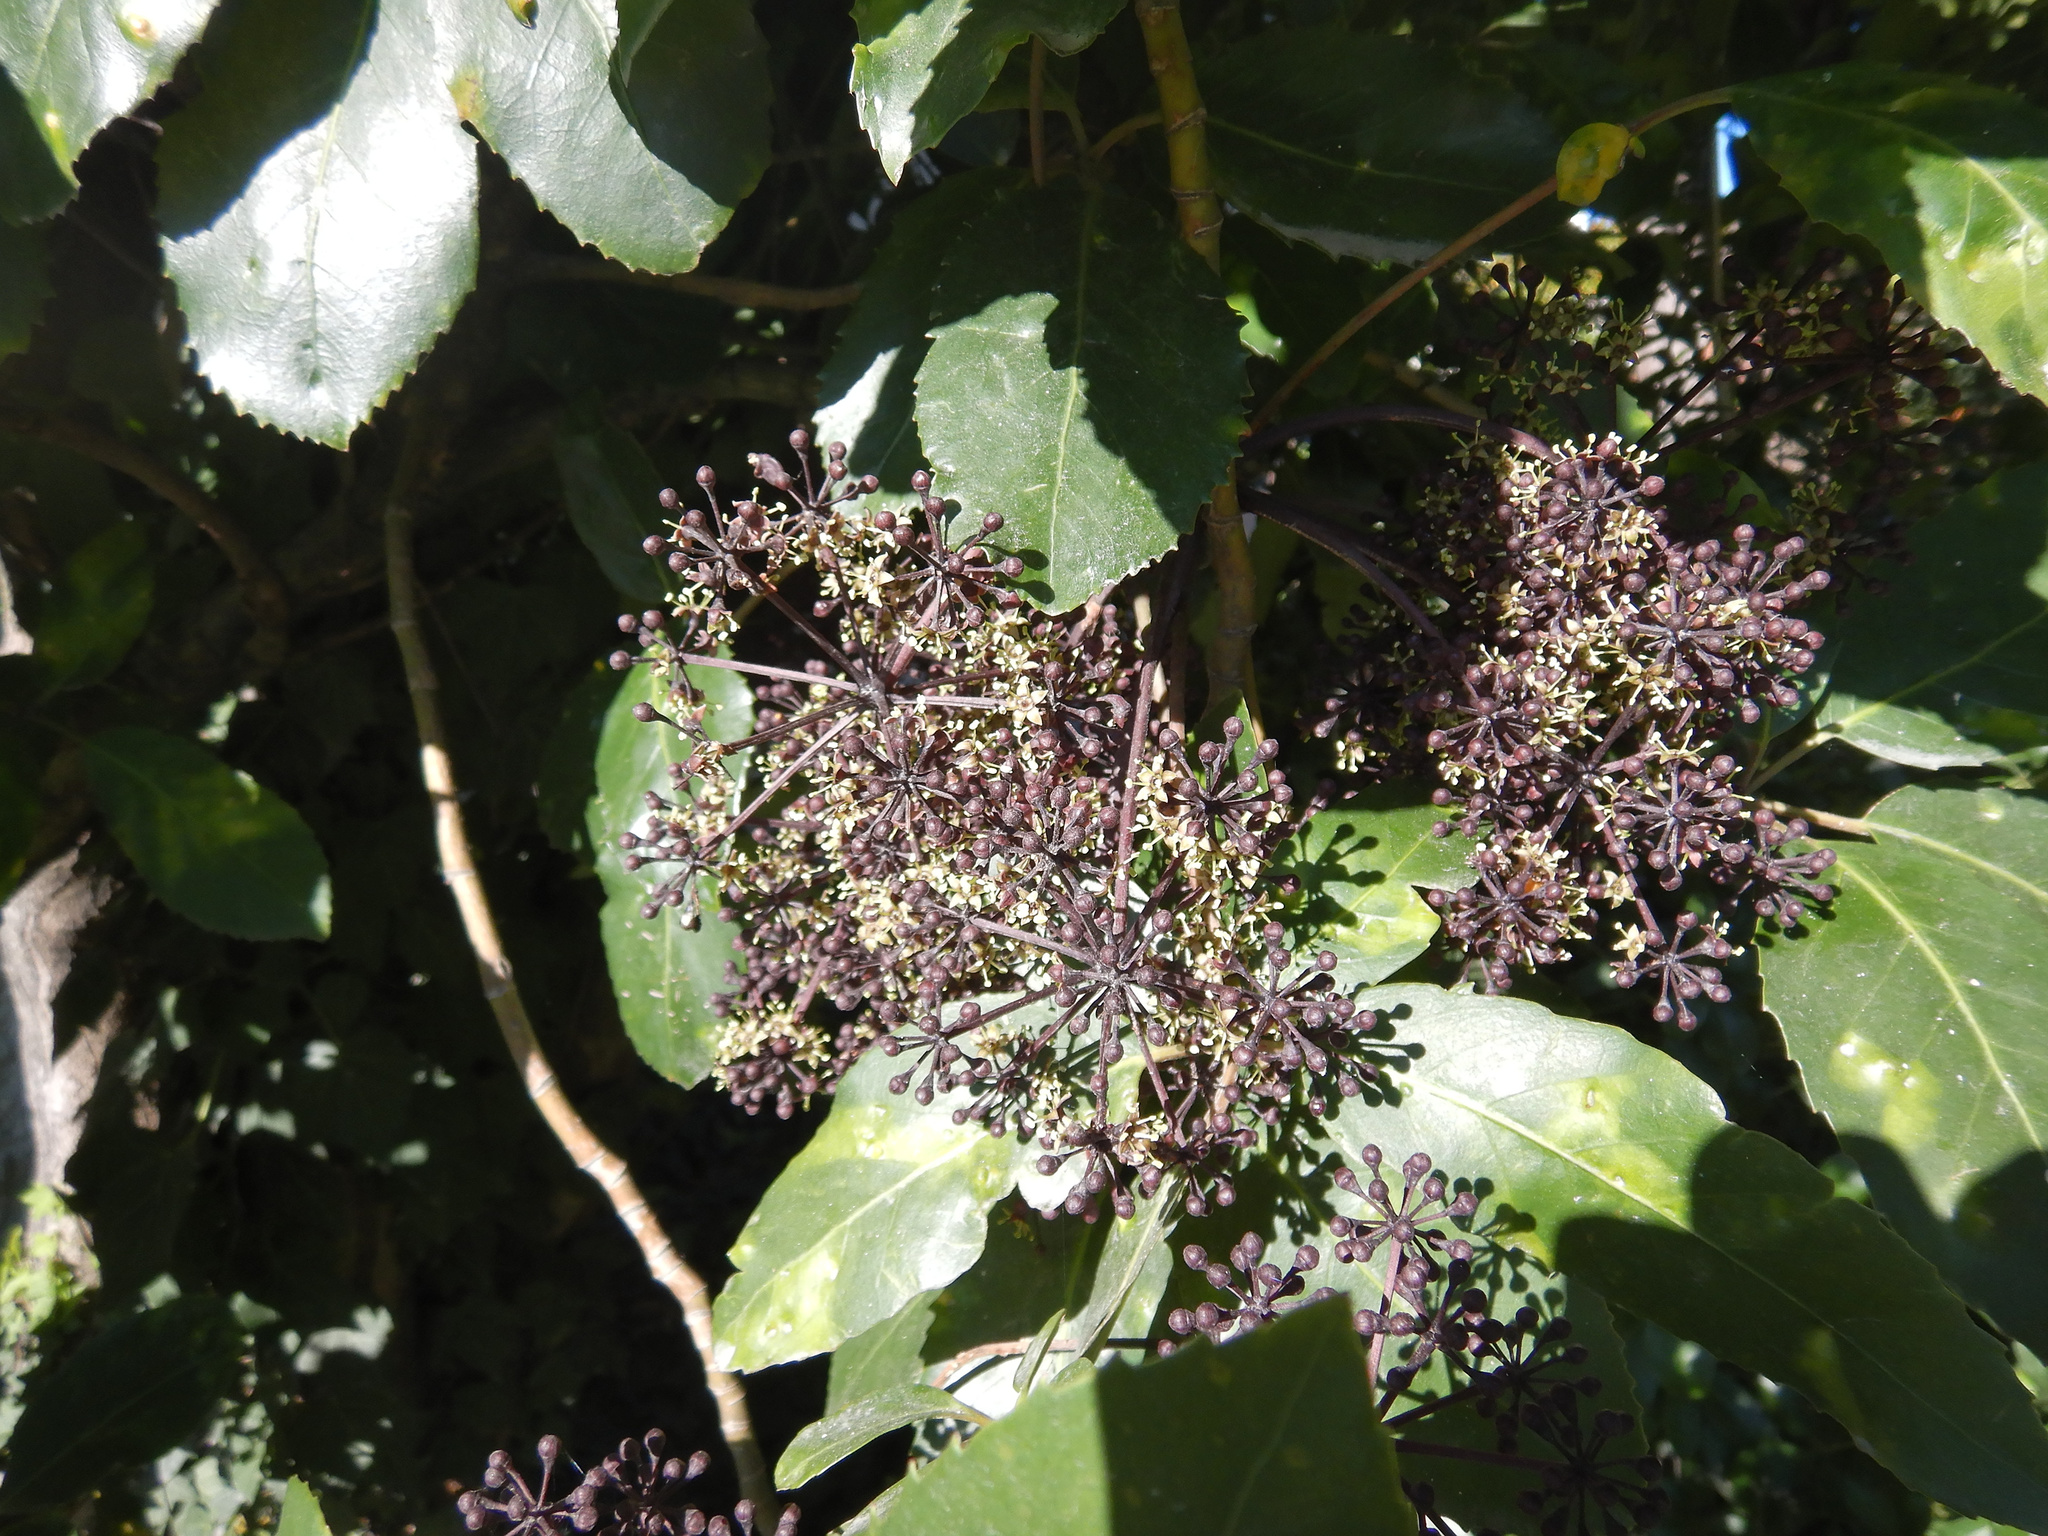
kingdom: Plantae
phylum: Tracheophyta
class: Magnoliopsida
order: Apiales
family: Araliaceae
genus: Neopanax
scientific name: Neopanax arboreus
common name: Five-fingers
